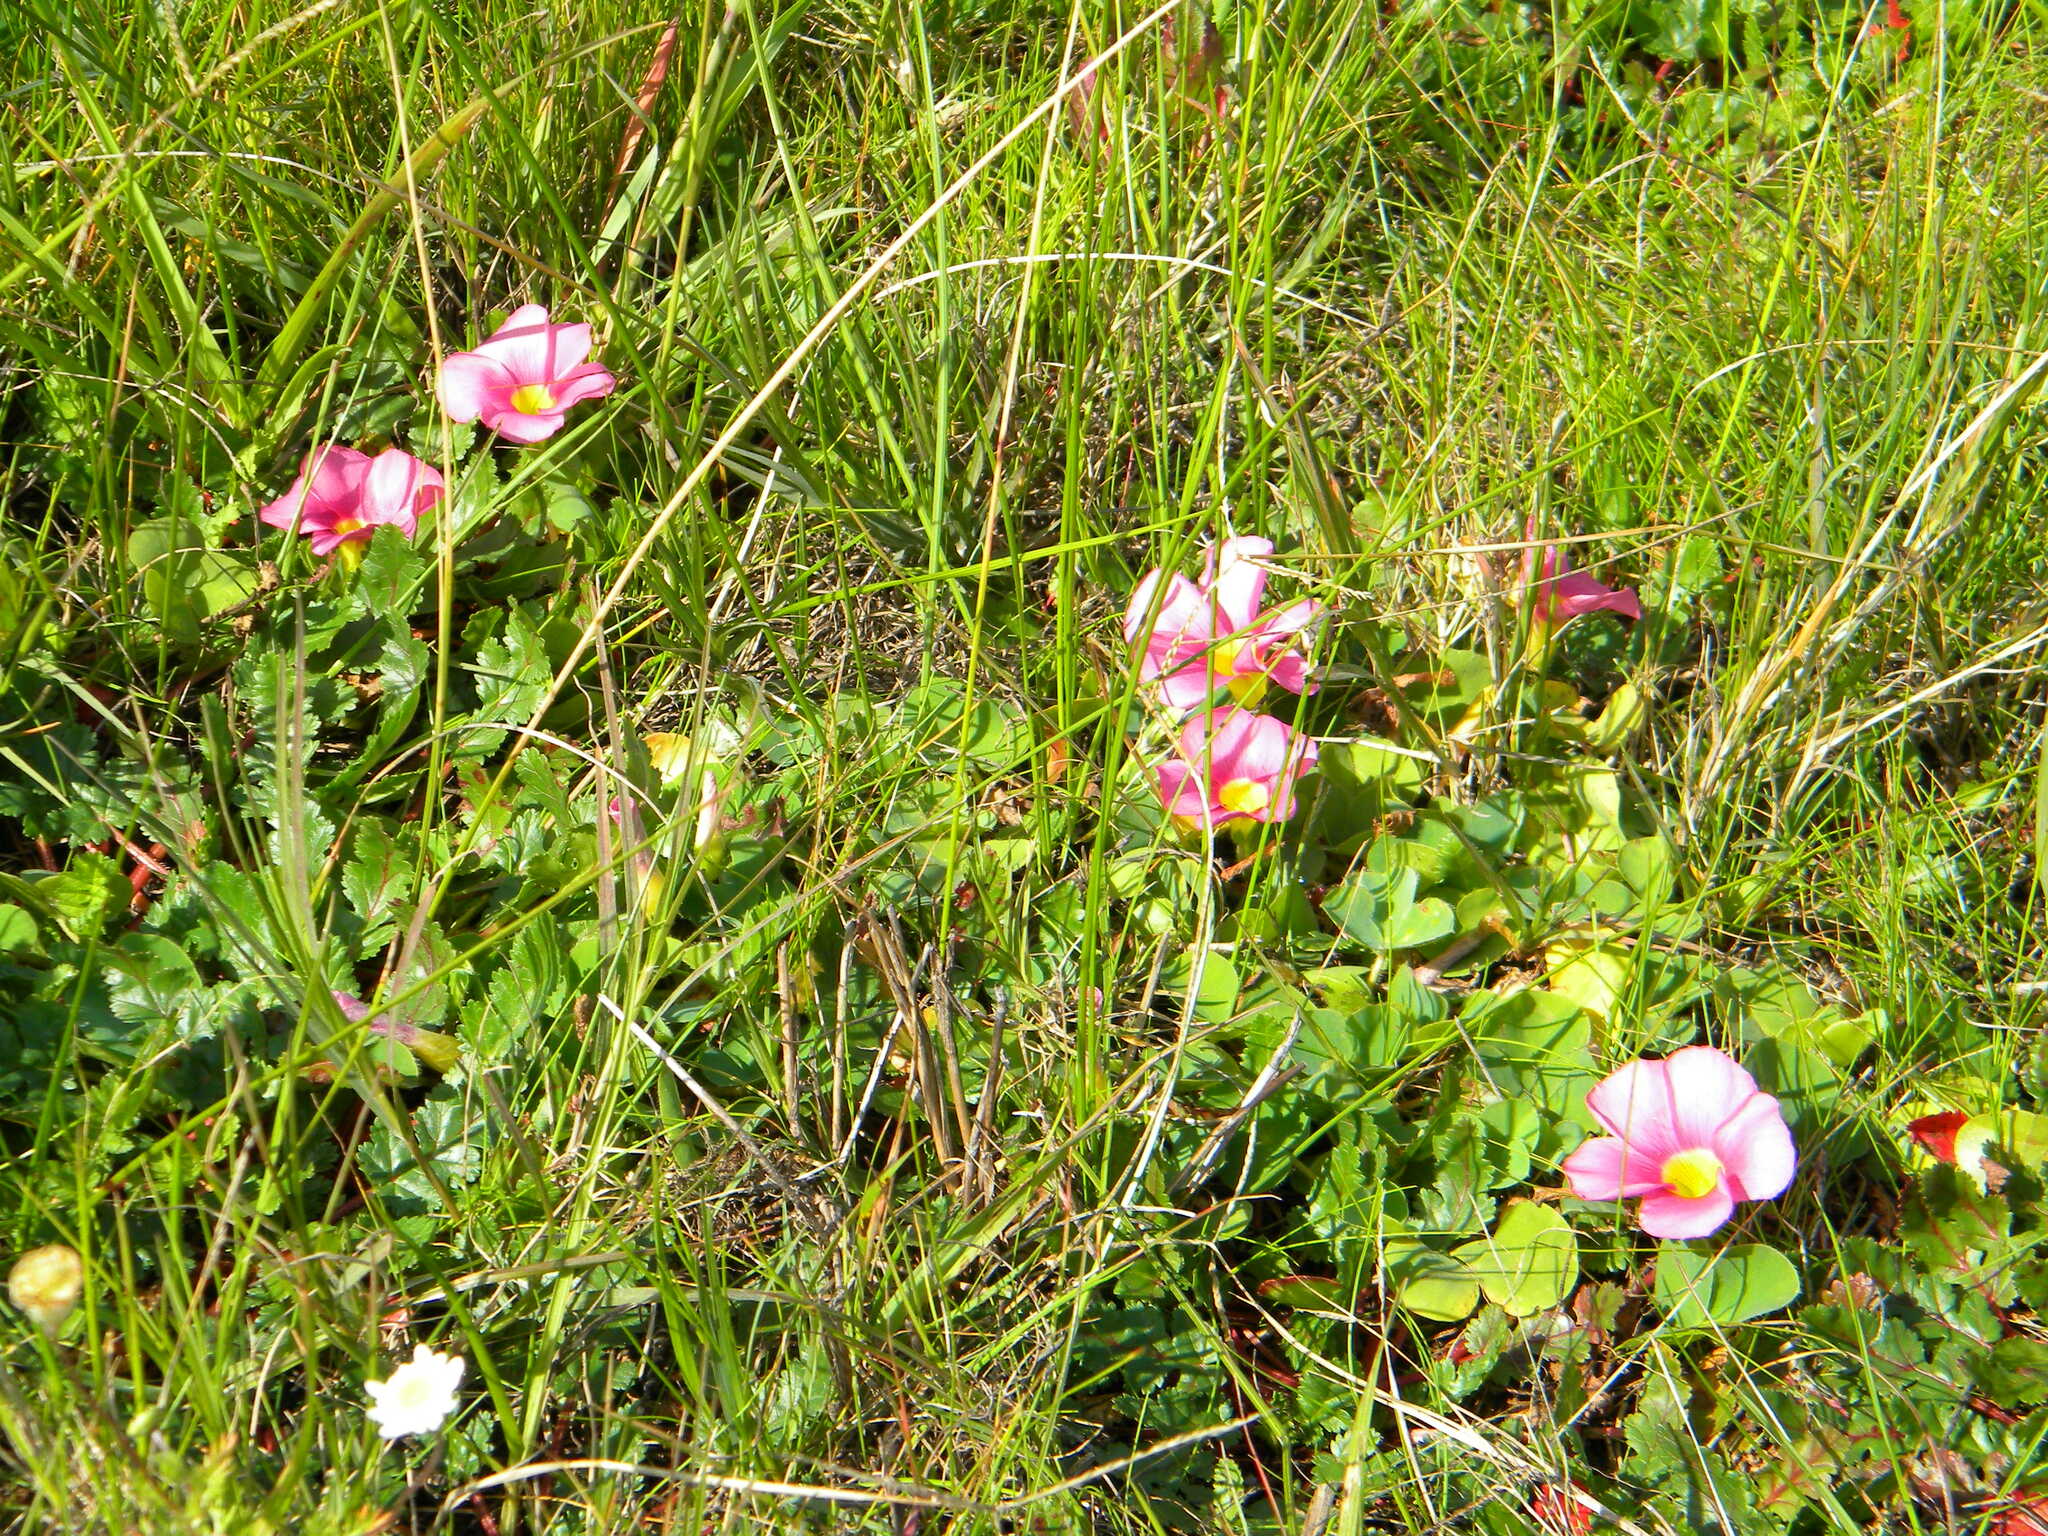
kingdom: Plantae
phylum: Tracheophyta
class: Magnoliopsida
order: Oxalidales
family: Oxalidaceae
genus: Oxalis
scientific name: Oxalis purpurea
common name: Purple woodsorrel
